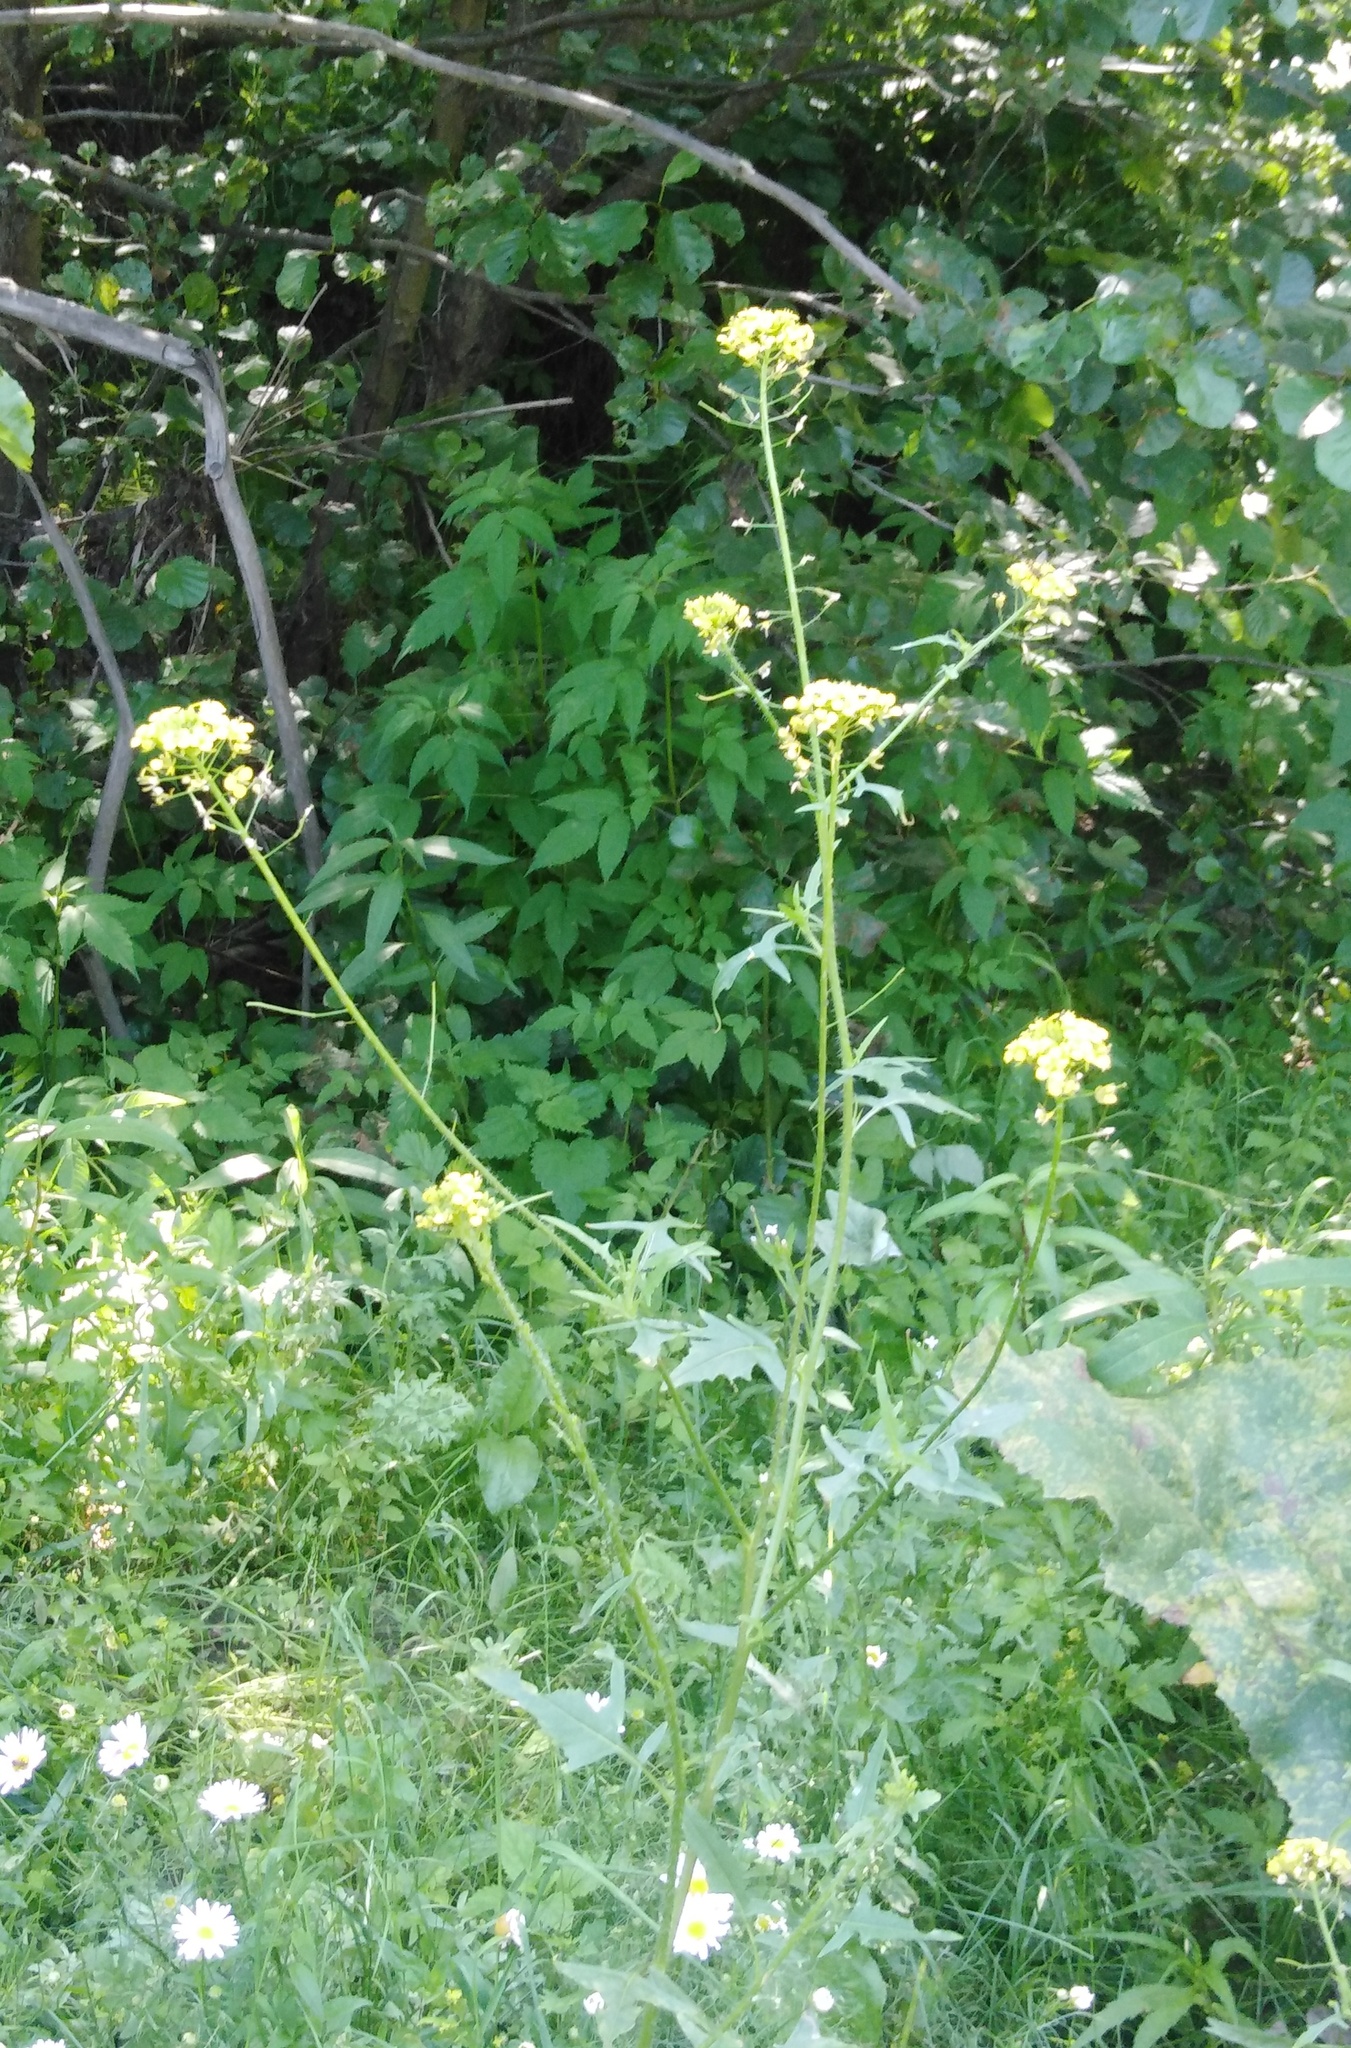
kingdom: Plantae
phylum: Tracheophyta
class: Magnoliopsida
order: Brassicales
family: Brassicaceae
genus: Sisymbrium
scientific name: Sisymbrium loeselii
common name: False london-rocket
